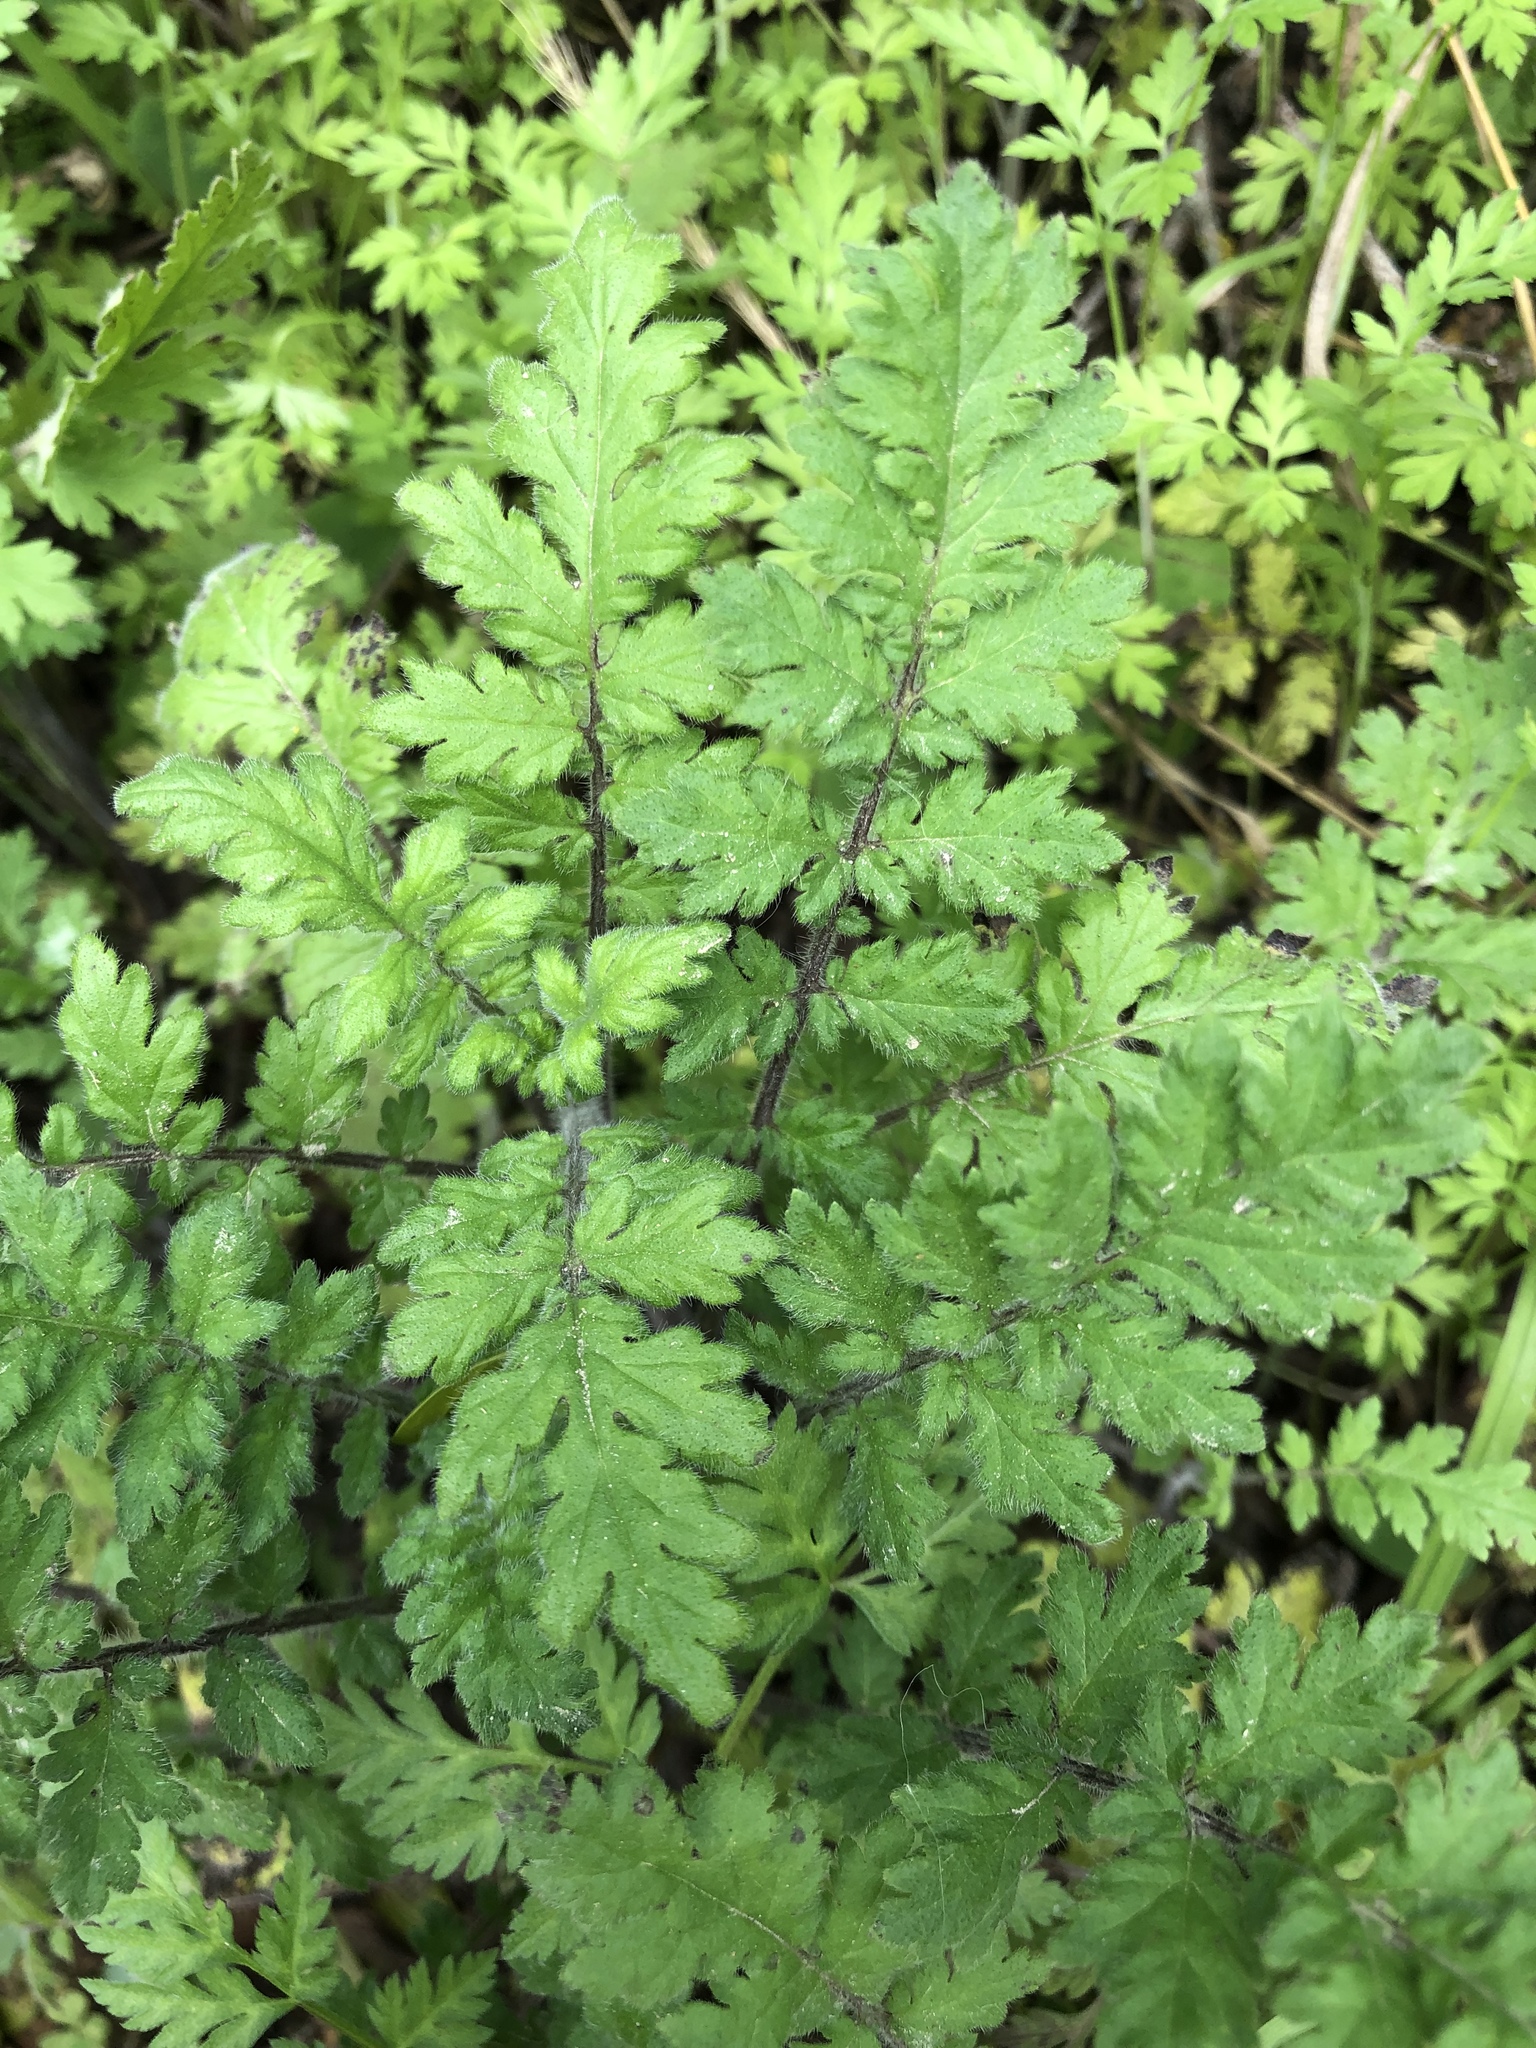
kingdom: Plantae
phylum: Tracheophyta
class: Magnoliopsida
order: Boraginales
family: Hydrophyllaceae
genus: Phacelia
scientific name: Phacelia congesta
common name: Blue curls
